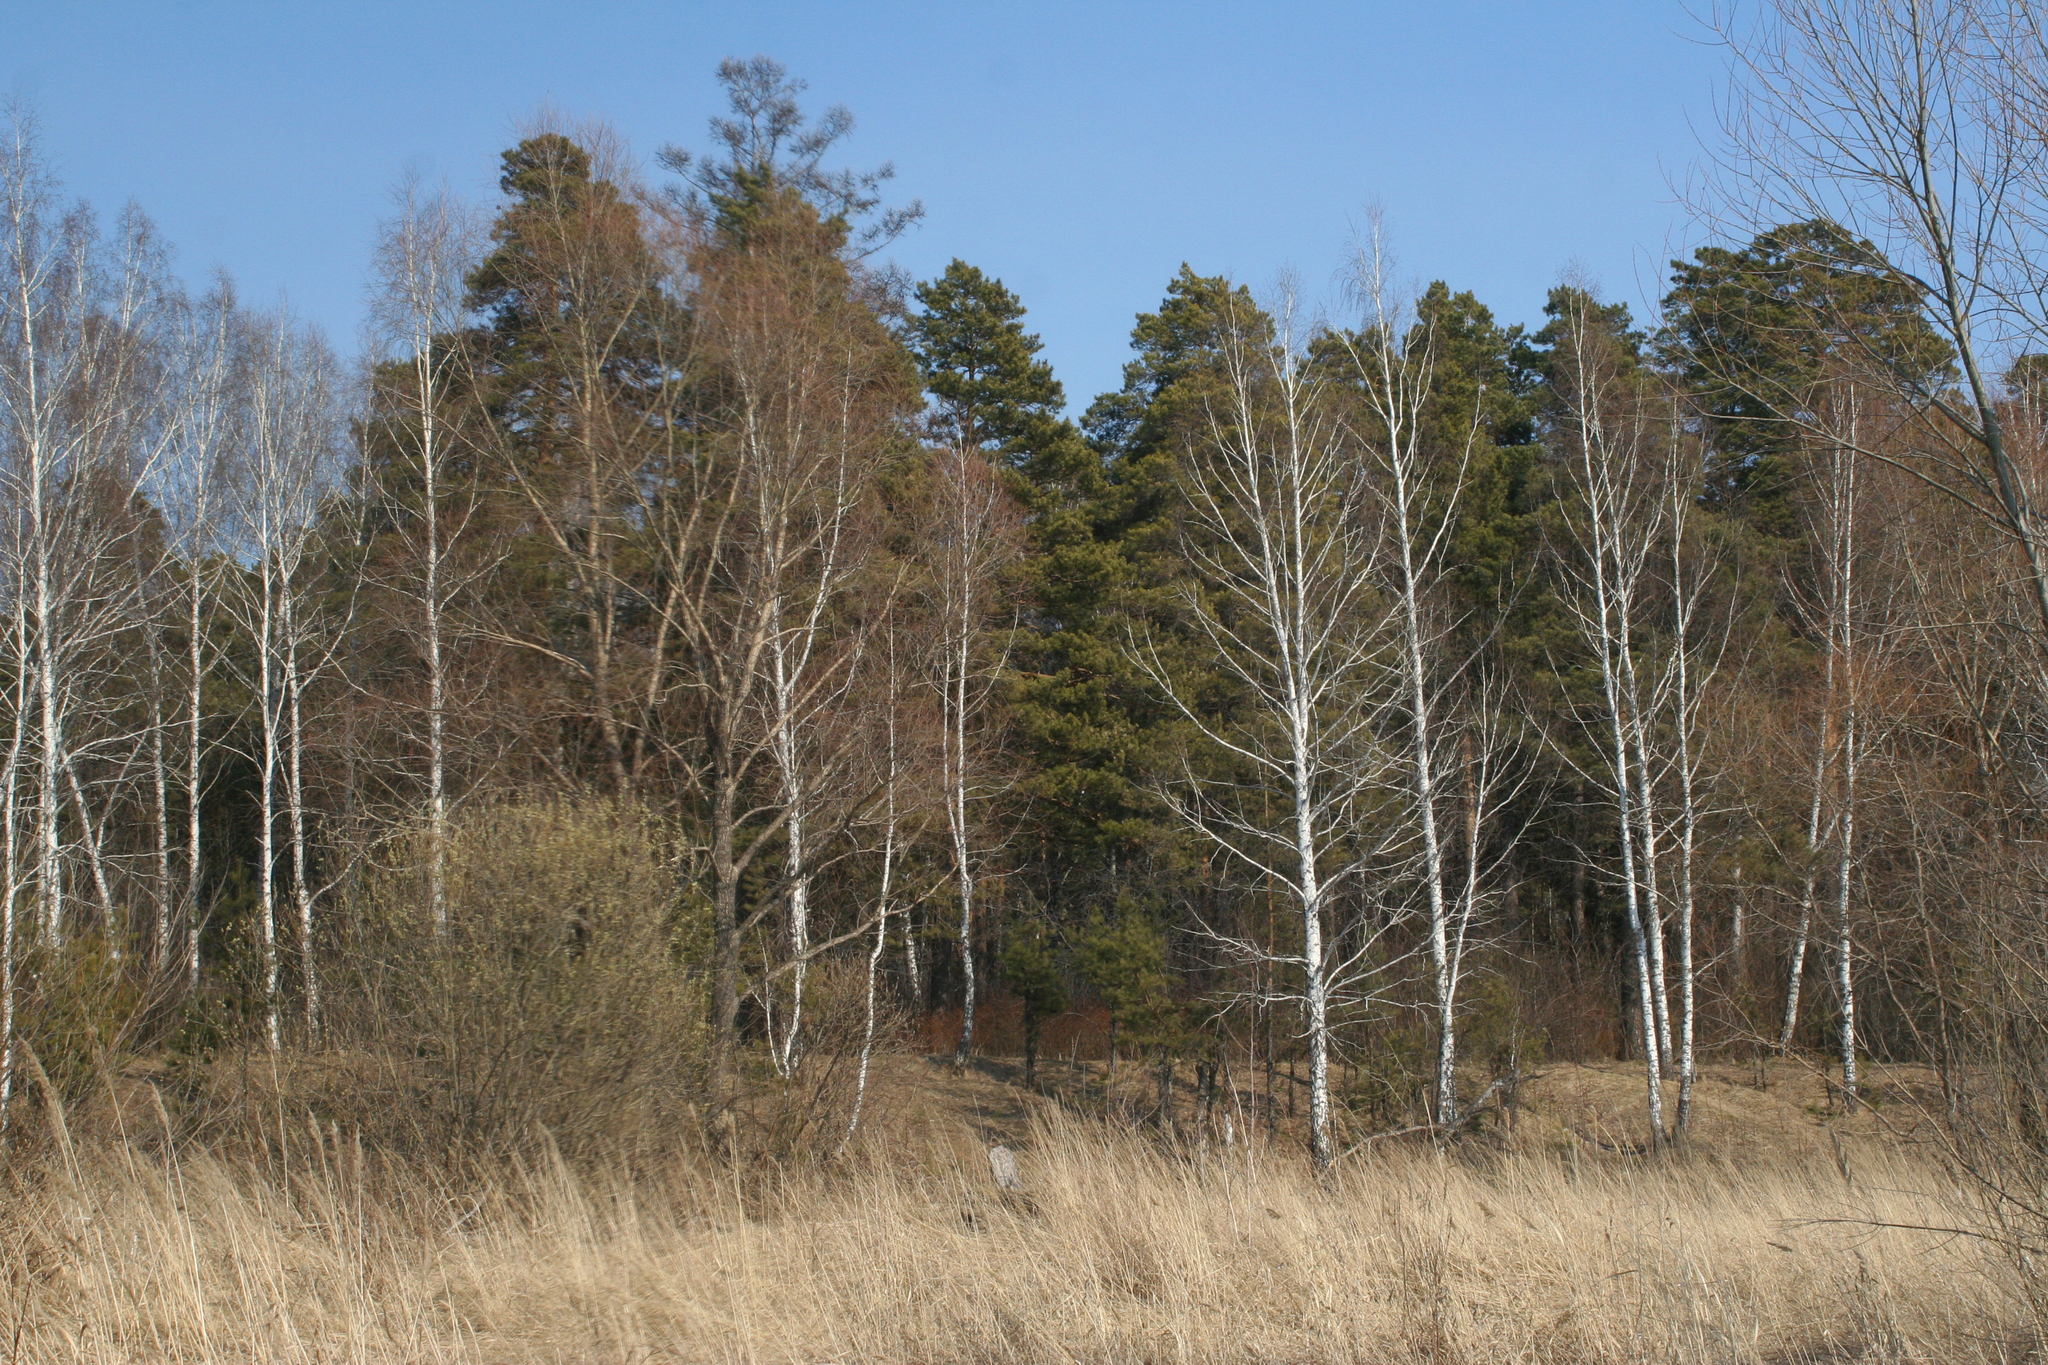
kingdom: Plantae
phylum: Tracheophyta
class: Magnoliopsida
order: Fagales
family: Betulaceae
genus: Betula
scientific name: Betula pendula
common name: Silver birch
